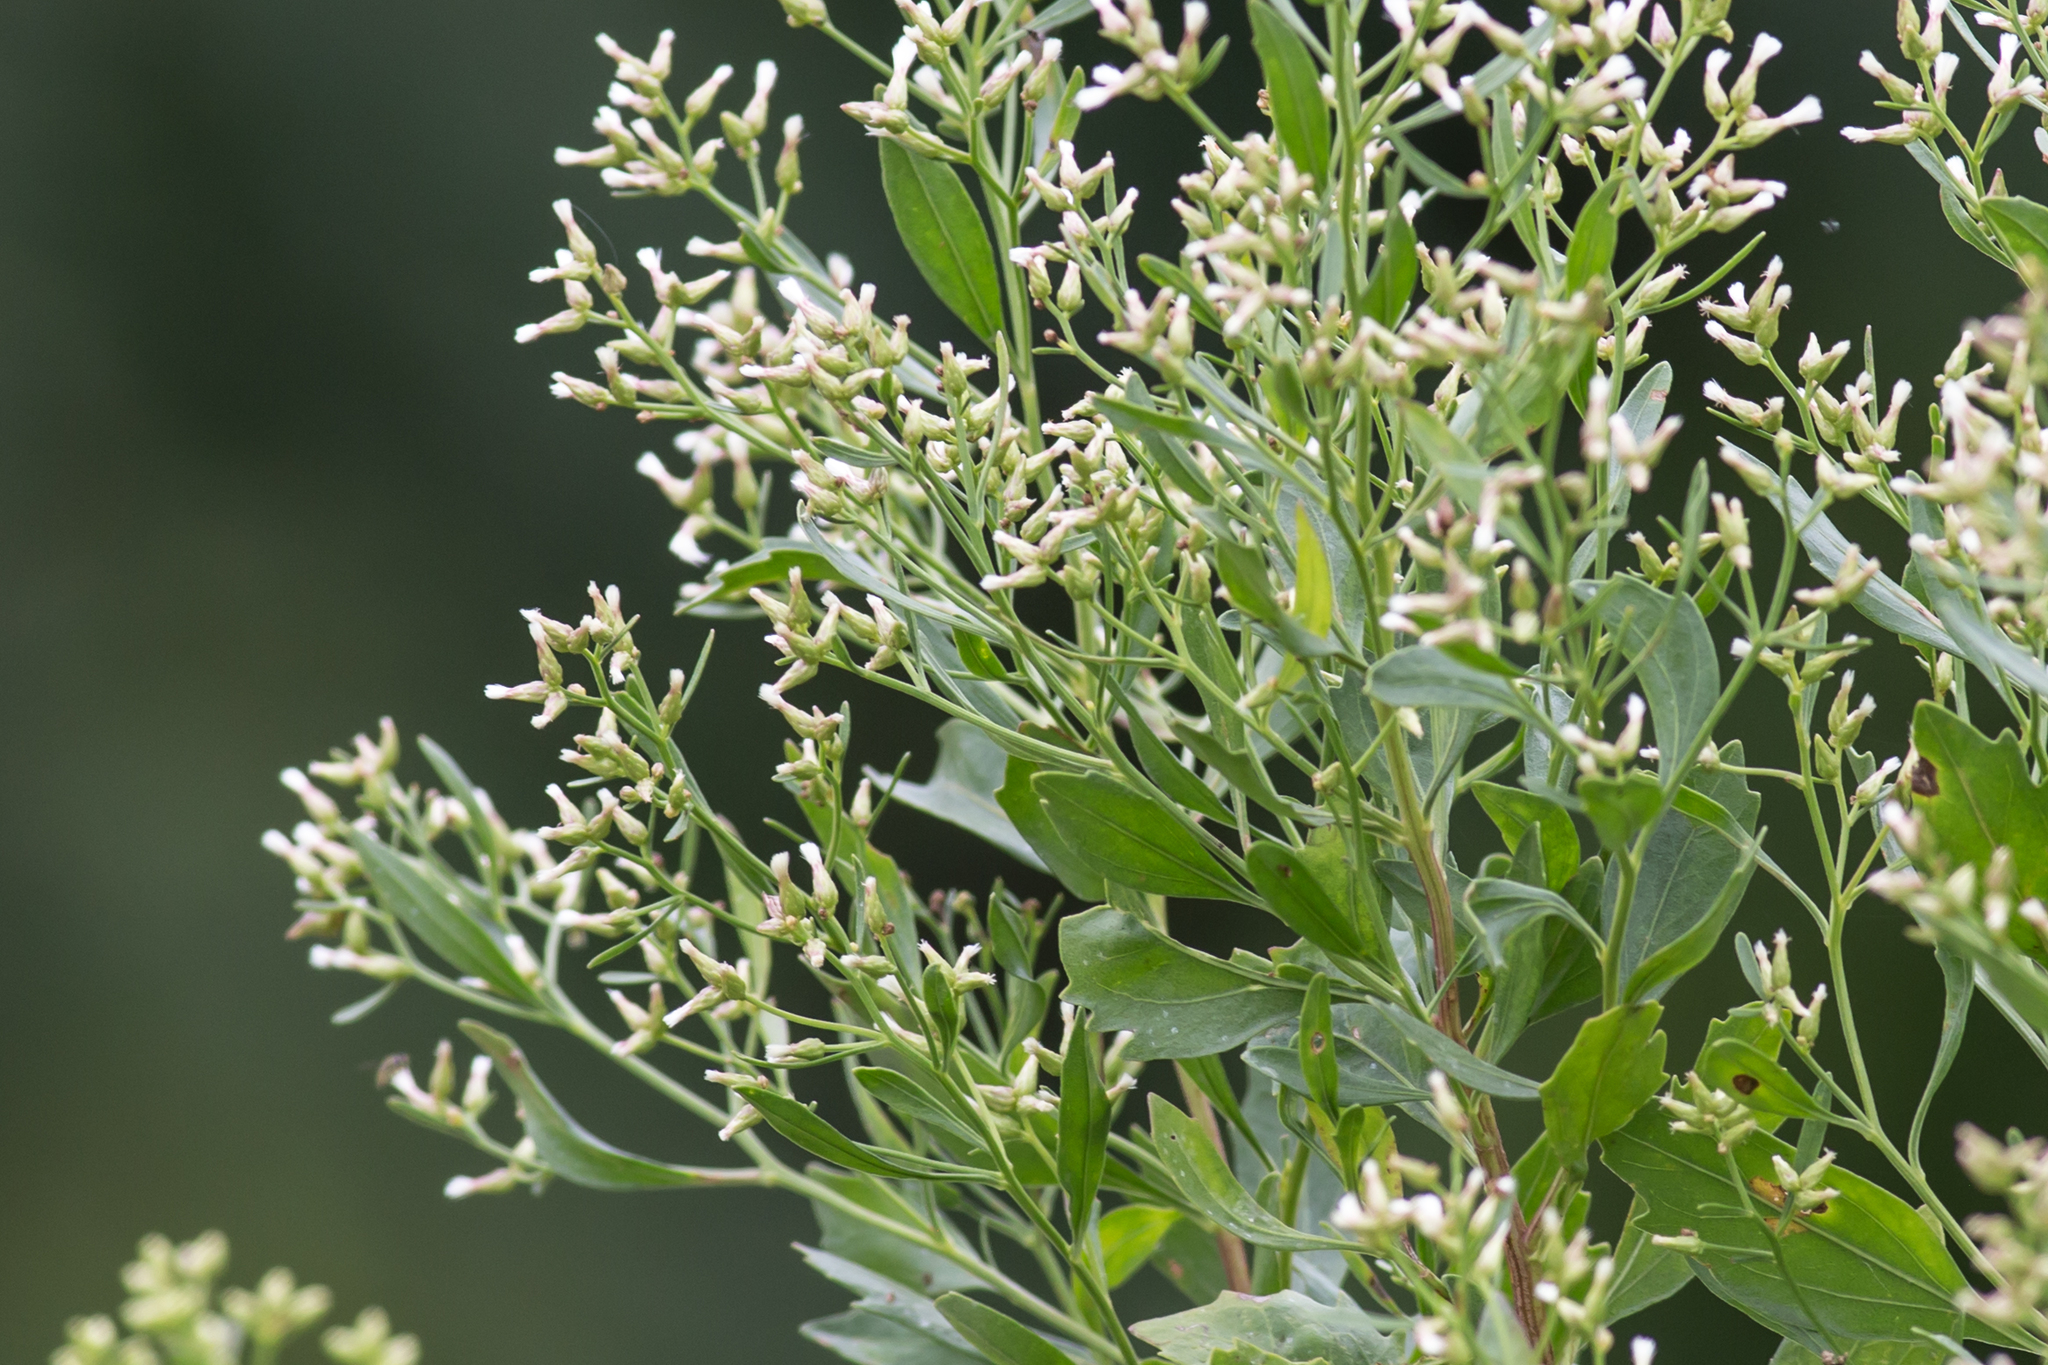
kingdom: Plantae
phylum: Tracheophyta
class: Magnoliopsida
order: Asterales
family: Asteraceae
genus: Baccharis
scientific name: Baccharis halimifolia
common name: Eastern baccharis
